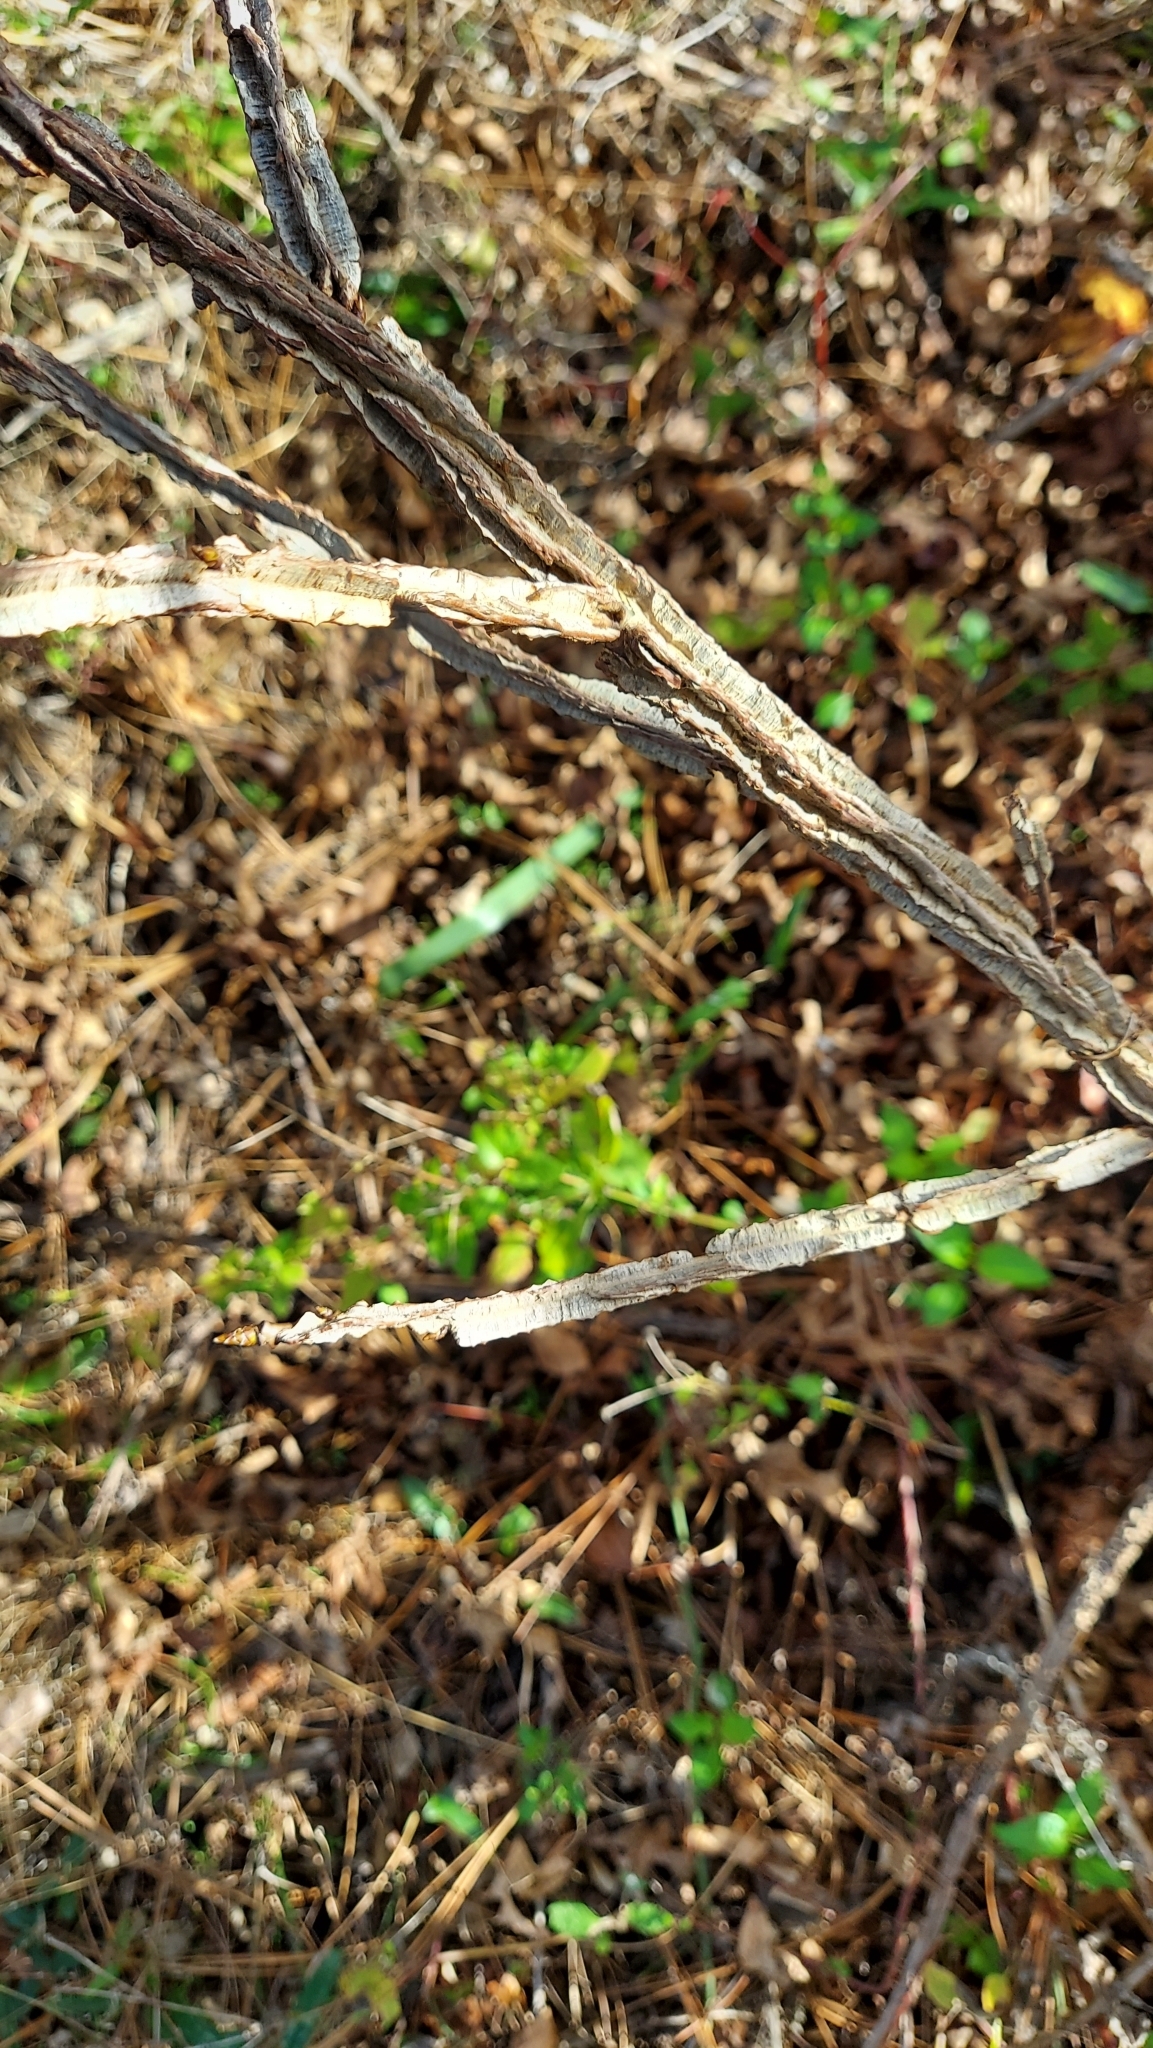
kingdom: Plantae
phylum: Tracheophyta
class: Magnoliopsida
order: Saxifragales
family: Altingiaceae
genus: Liquidambar
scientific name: Liquidambar styraciflua
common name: Sweet gum
